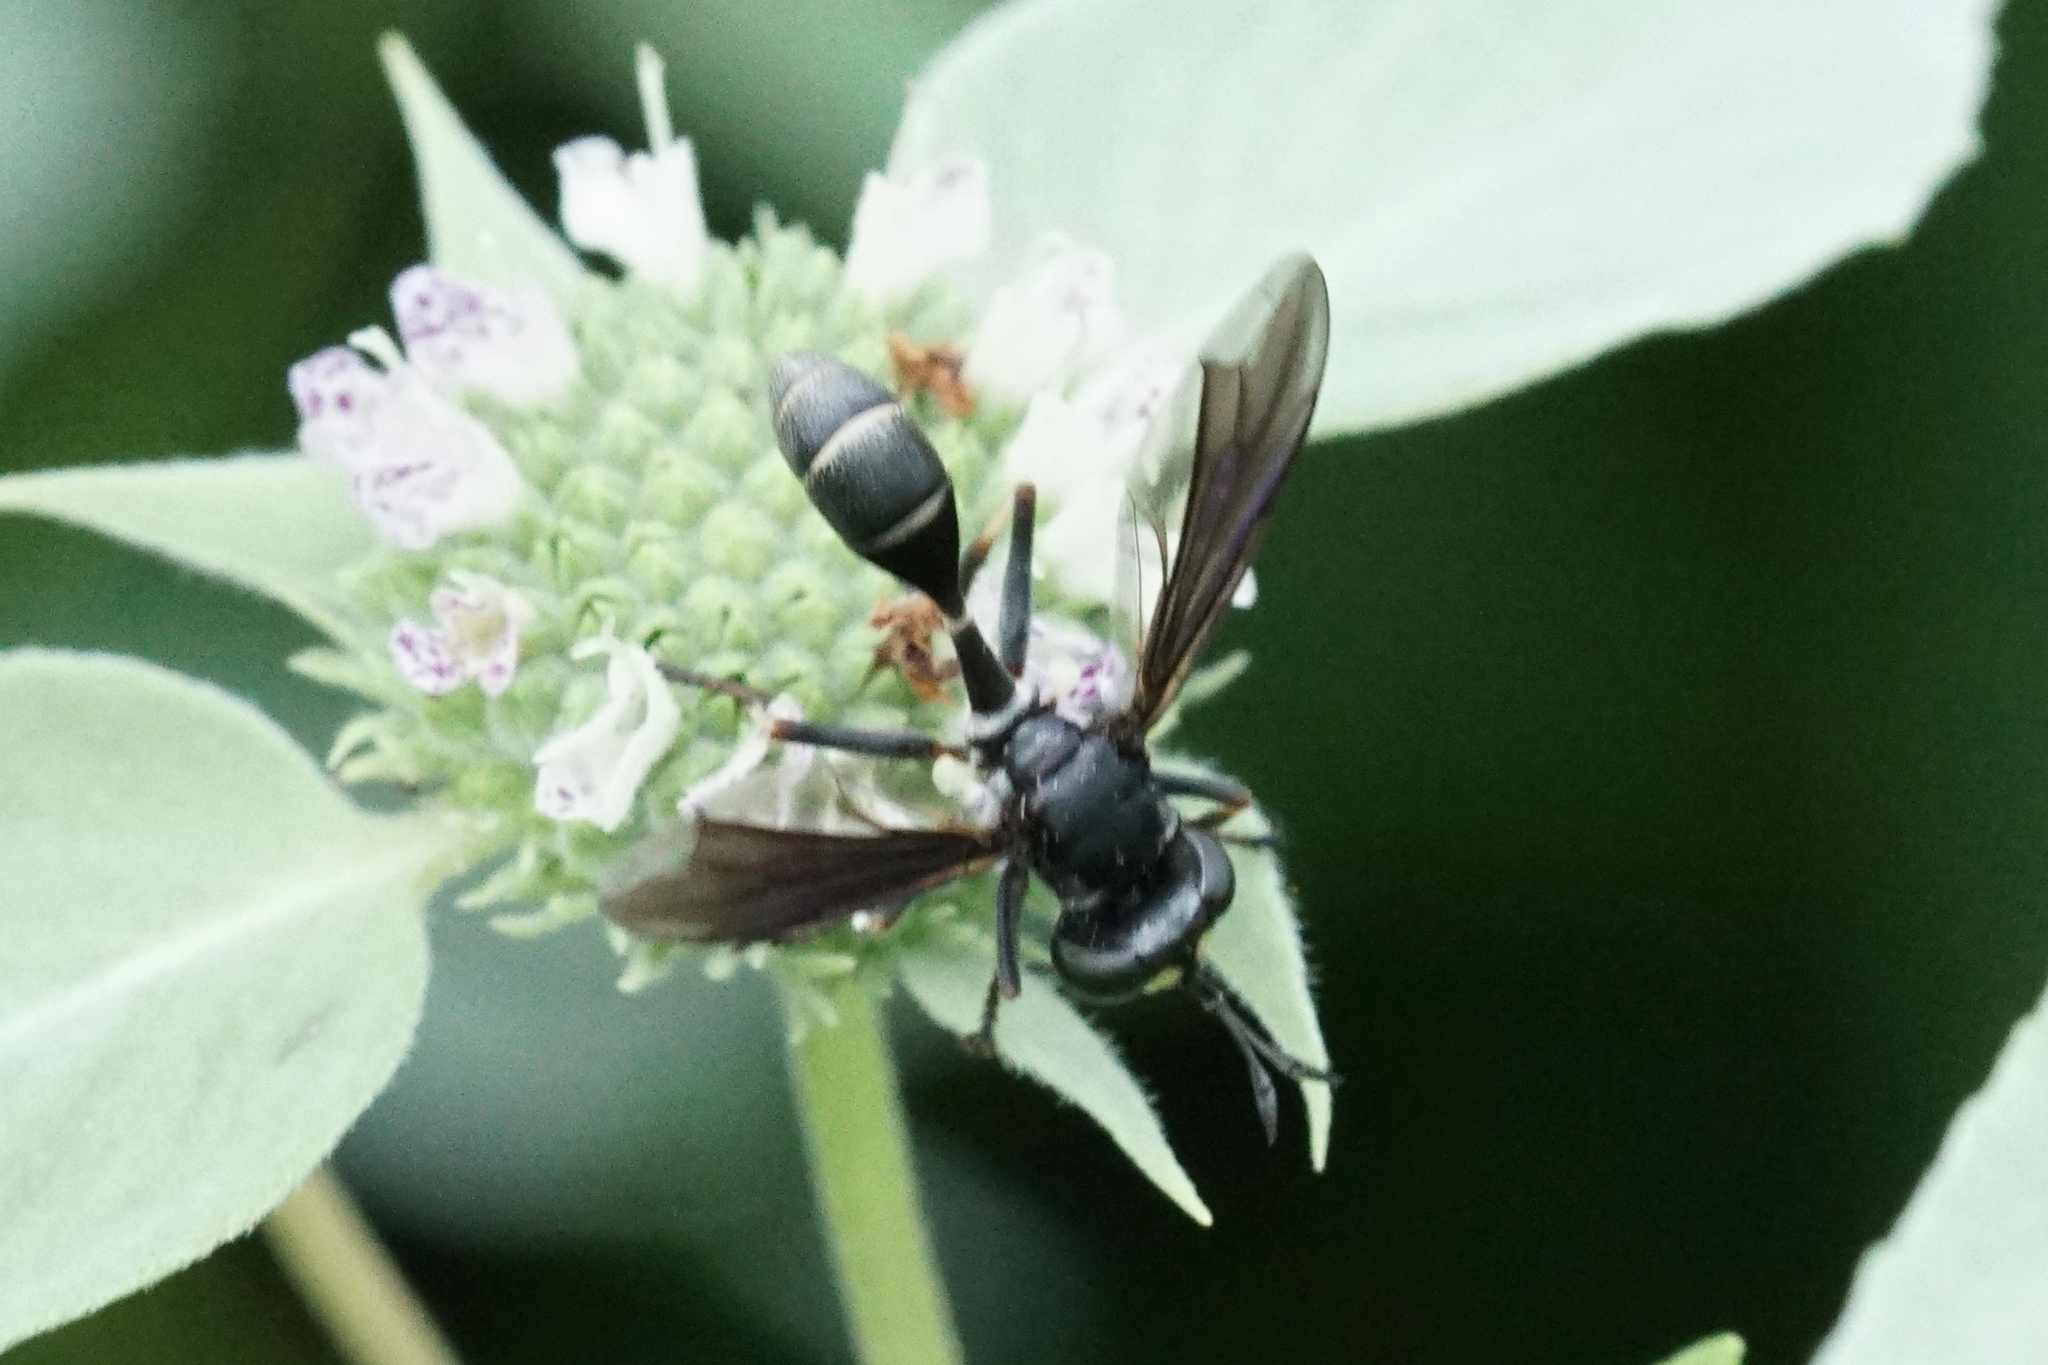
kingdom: Animalia
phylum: Arthropoda
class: Insecta
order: Diptera
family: Conopidae
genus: Physocephala
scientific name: Physocephala tibialis
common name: Common eastern physocephala
